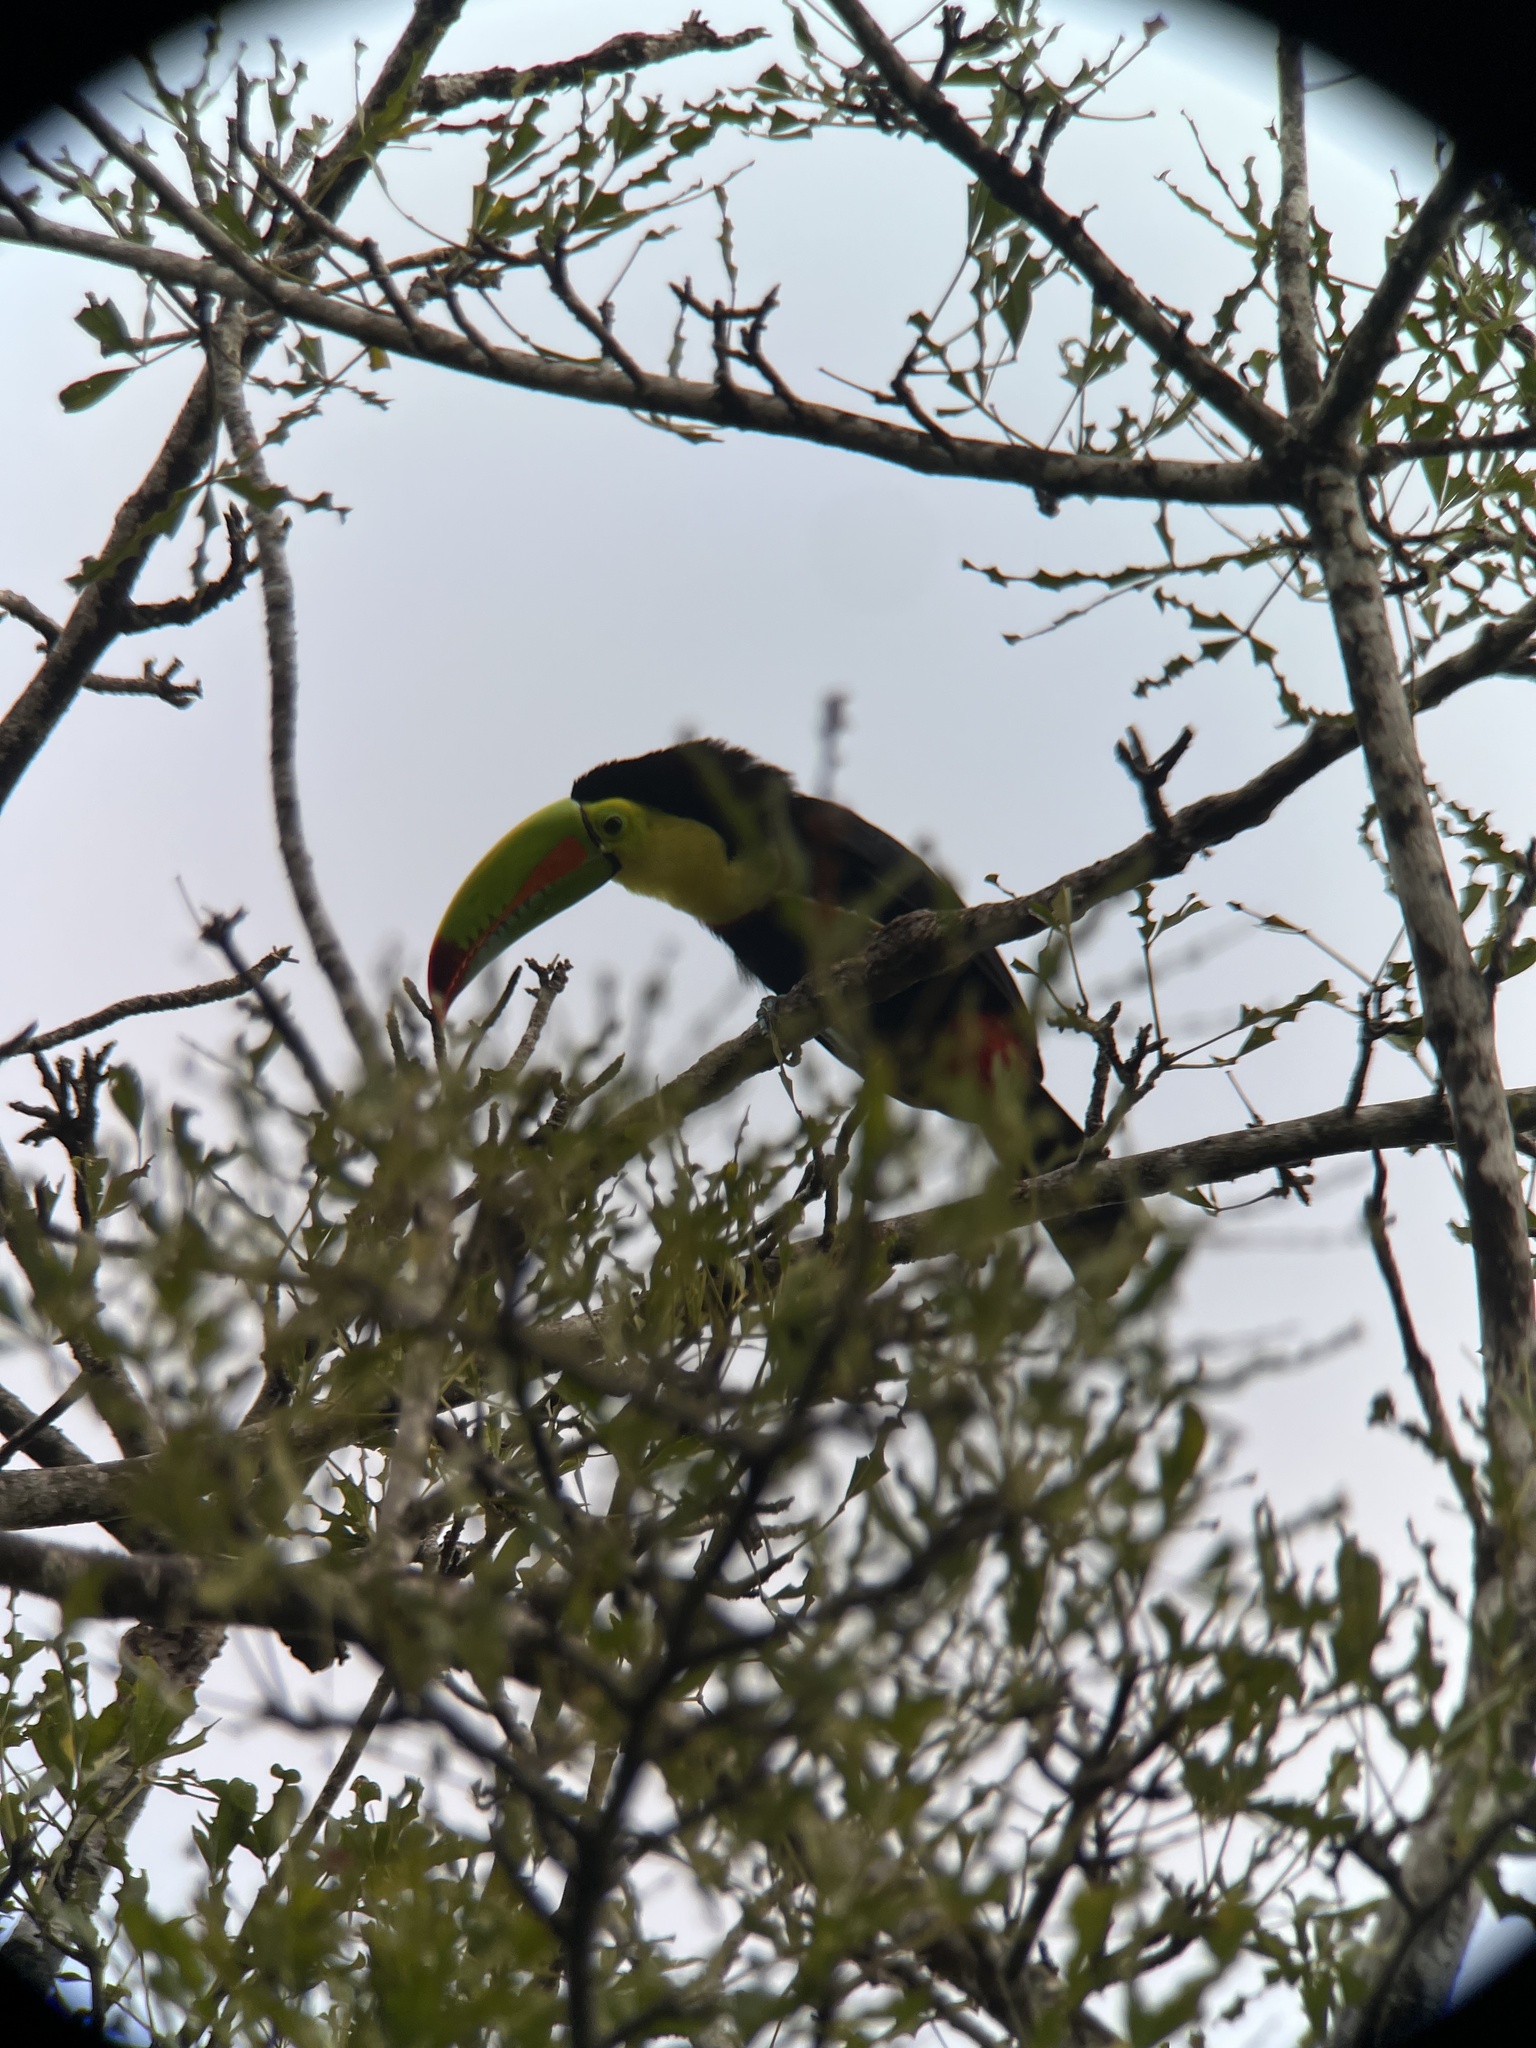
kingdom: Animalia
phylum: Chordata
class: Aves
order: Piciformes
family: Ramphastidae
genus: Ramphastos
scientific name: Ramphastos sulfuratus
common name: Keel-billed toucan
